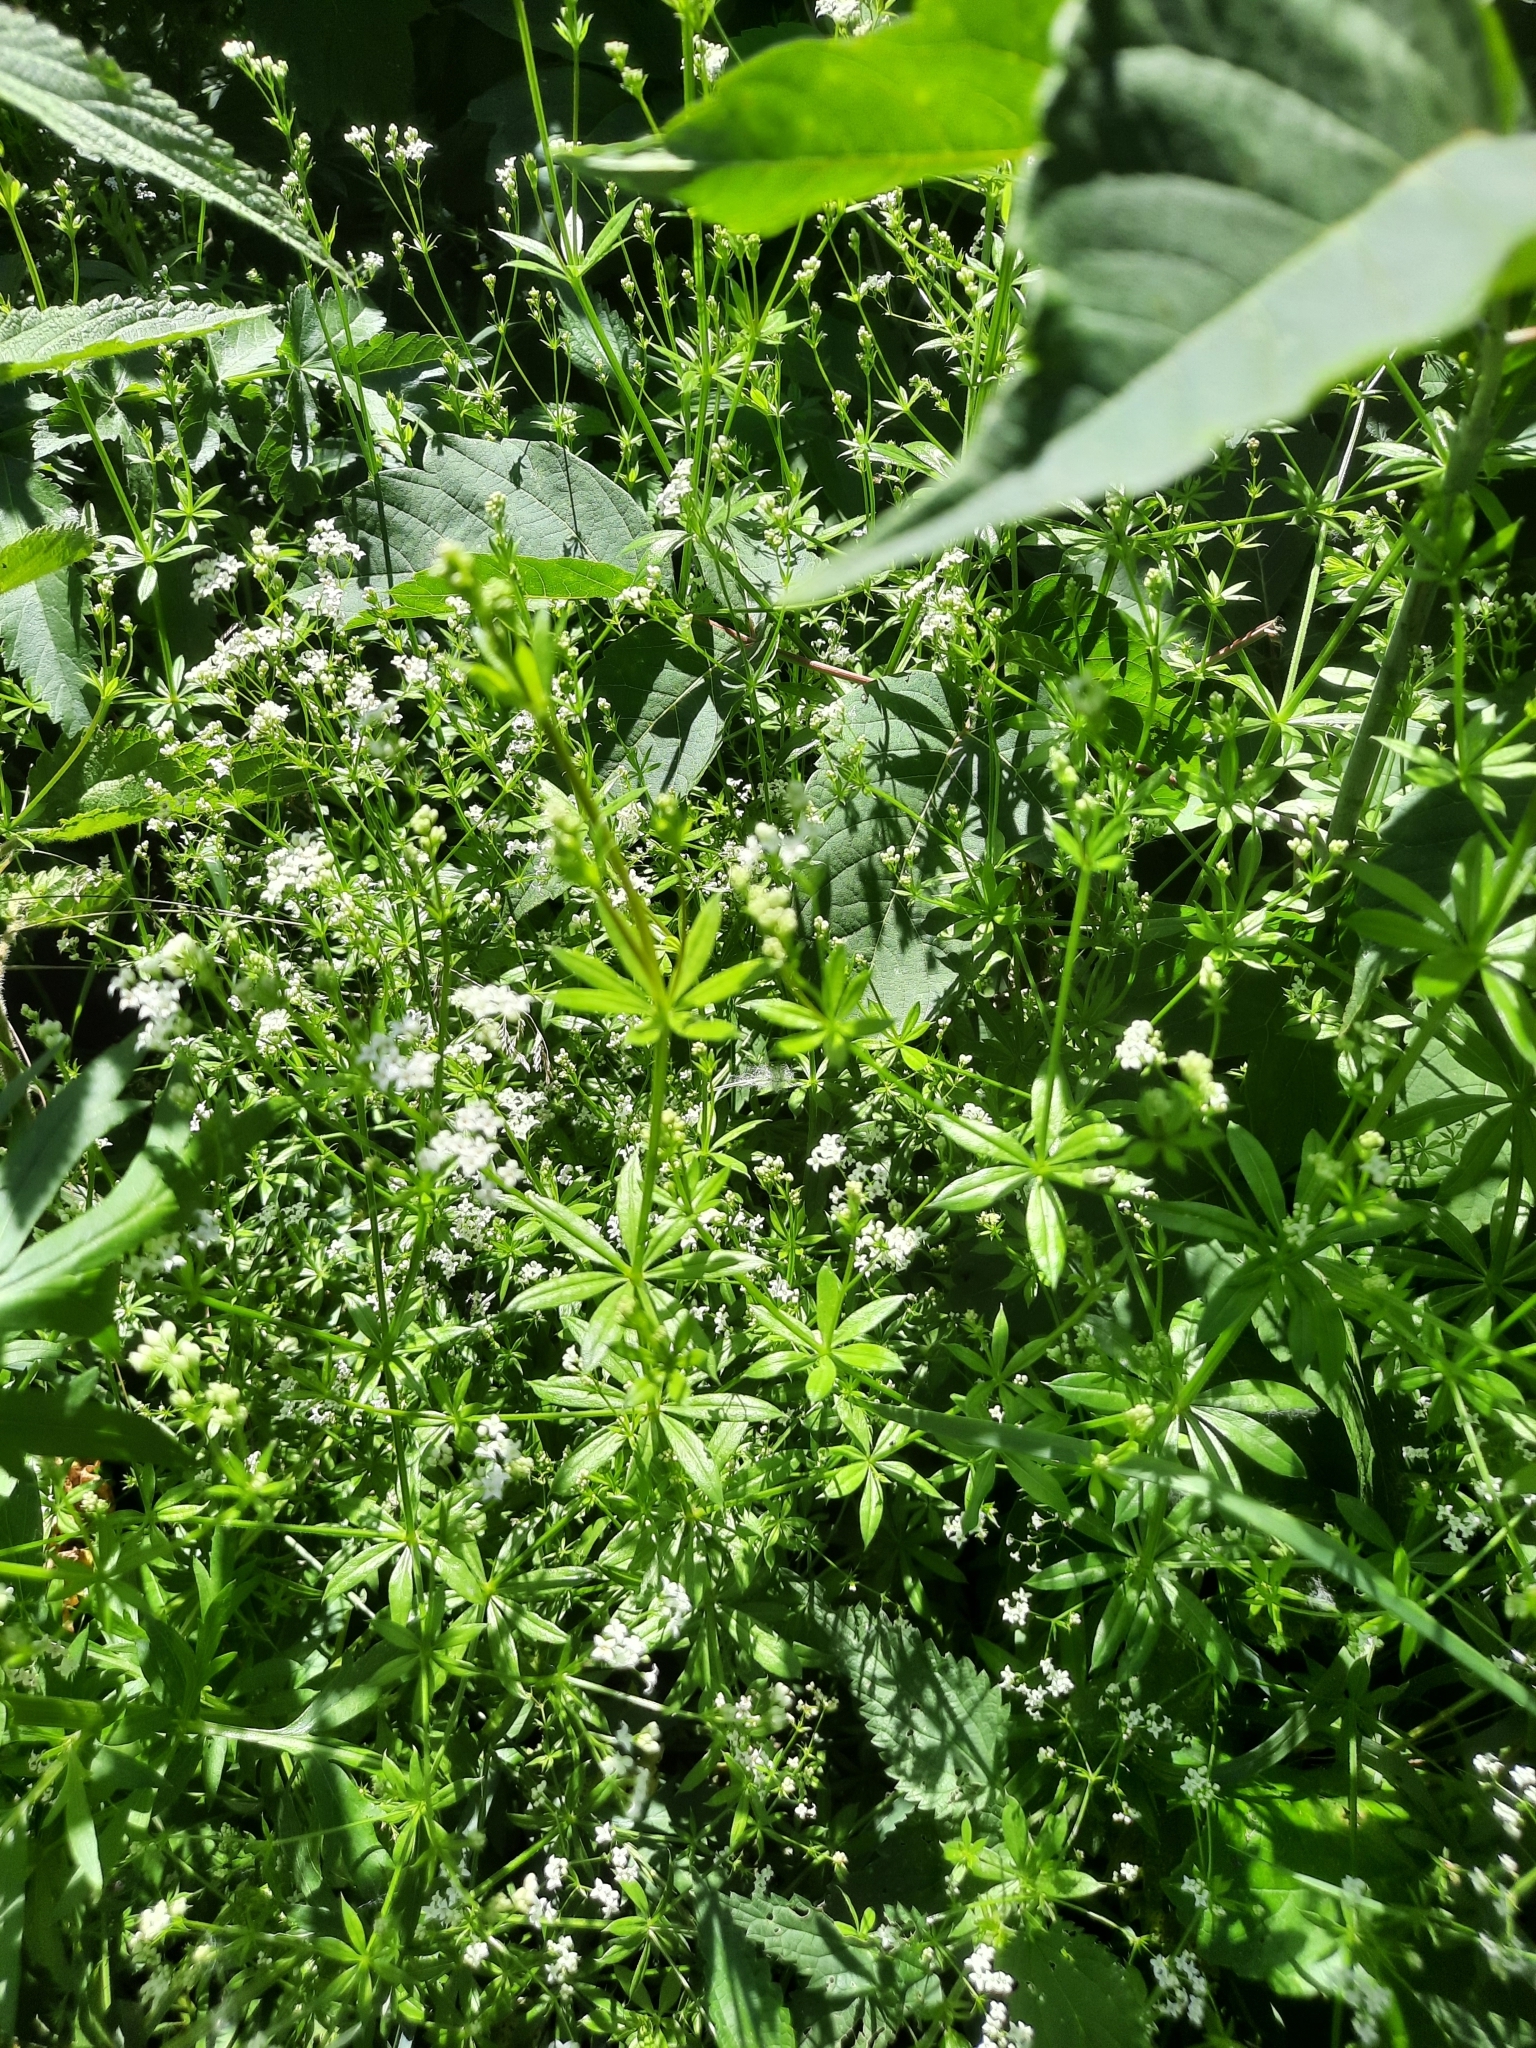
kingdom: Plantae
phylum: Tracheophyta
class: Magnoliopsida
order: Gentianales
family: Rubiaceae
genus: Galium
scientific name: Galium rivale
